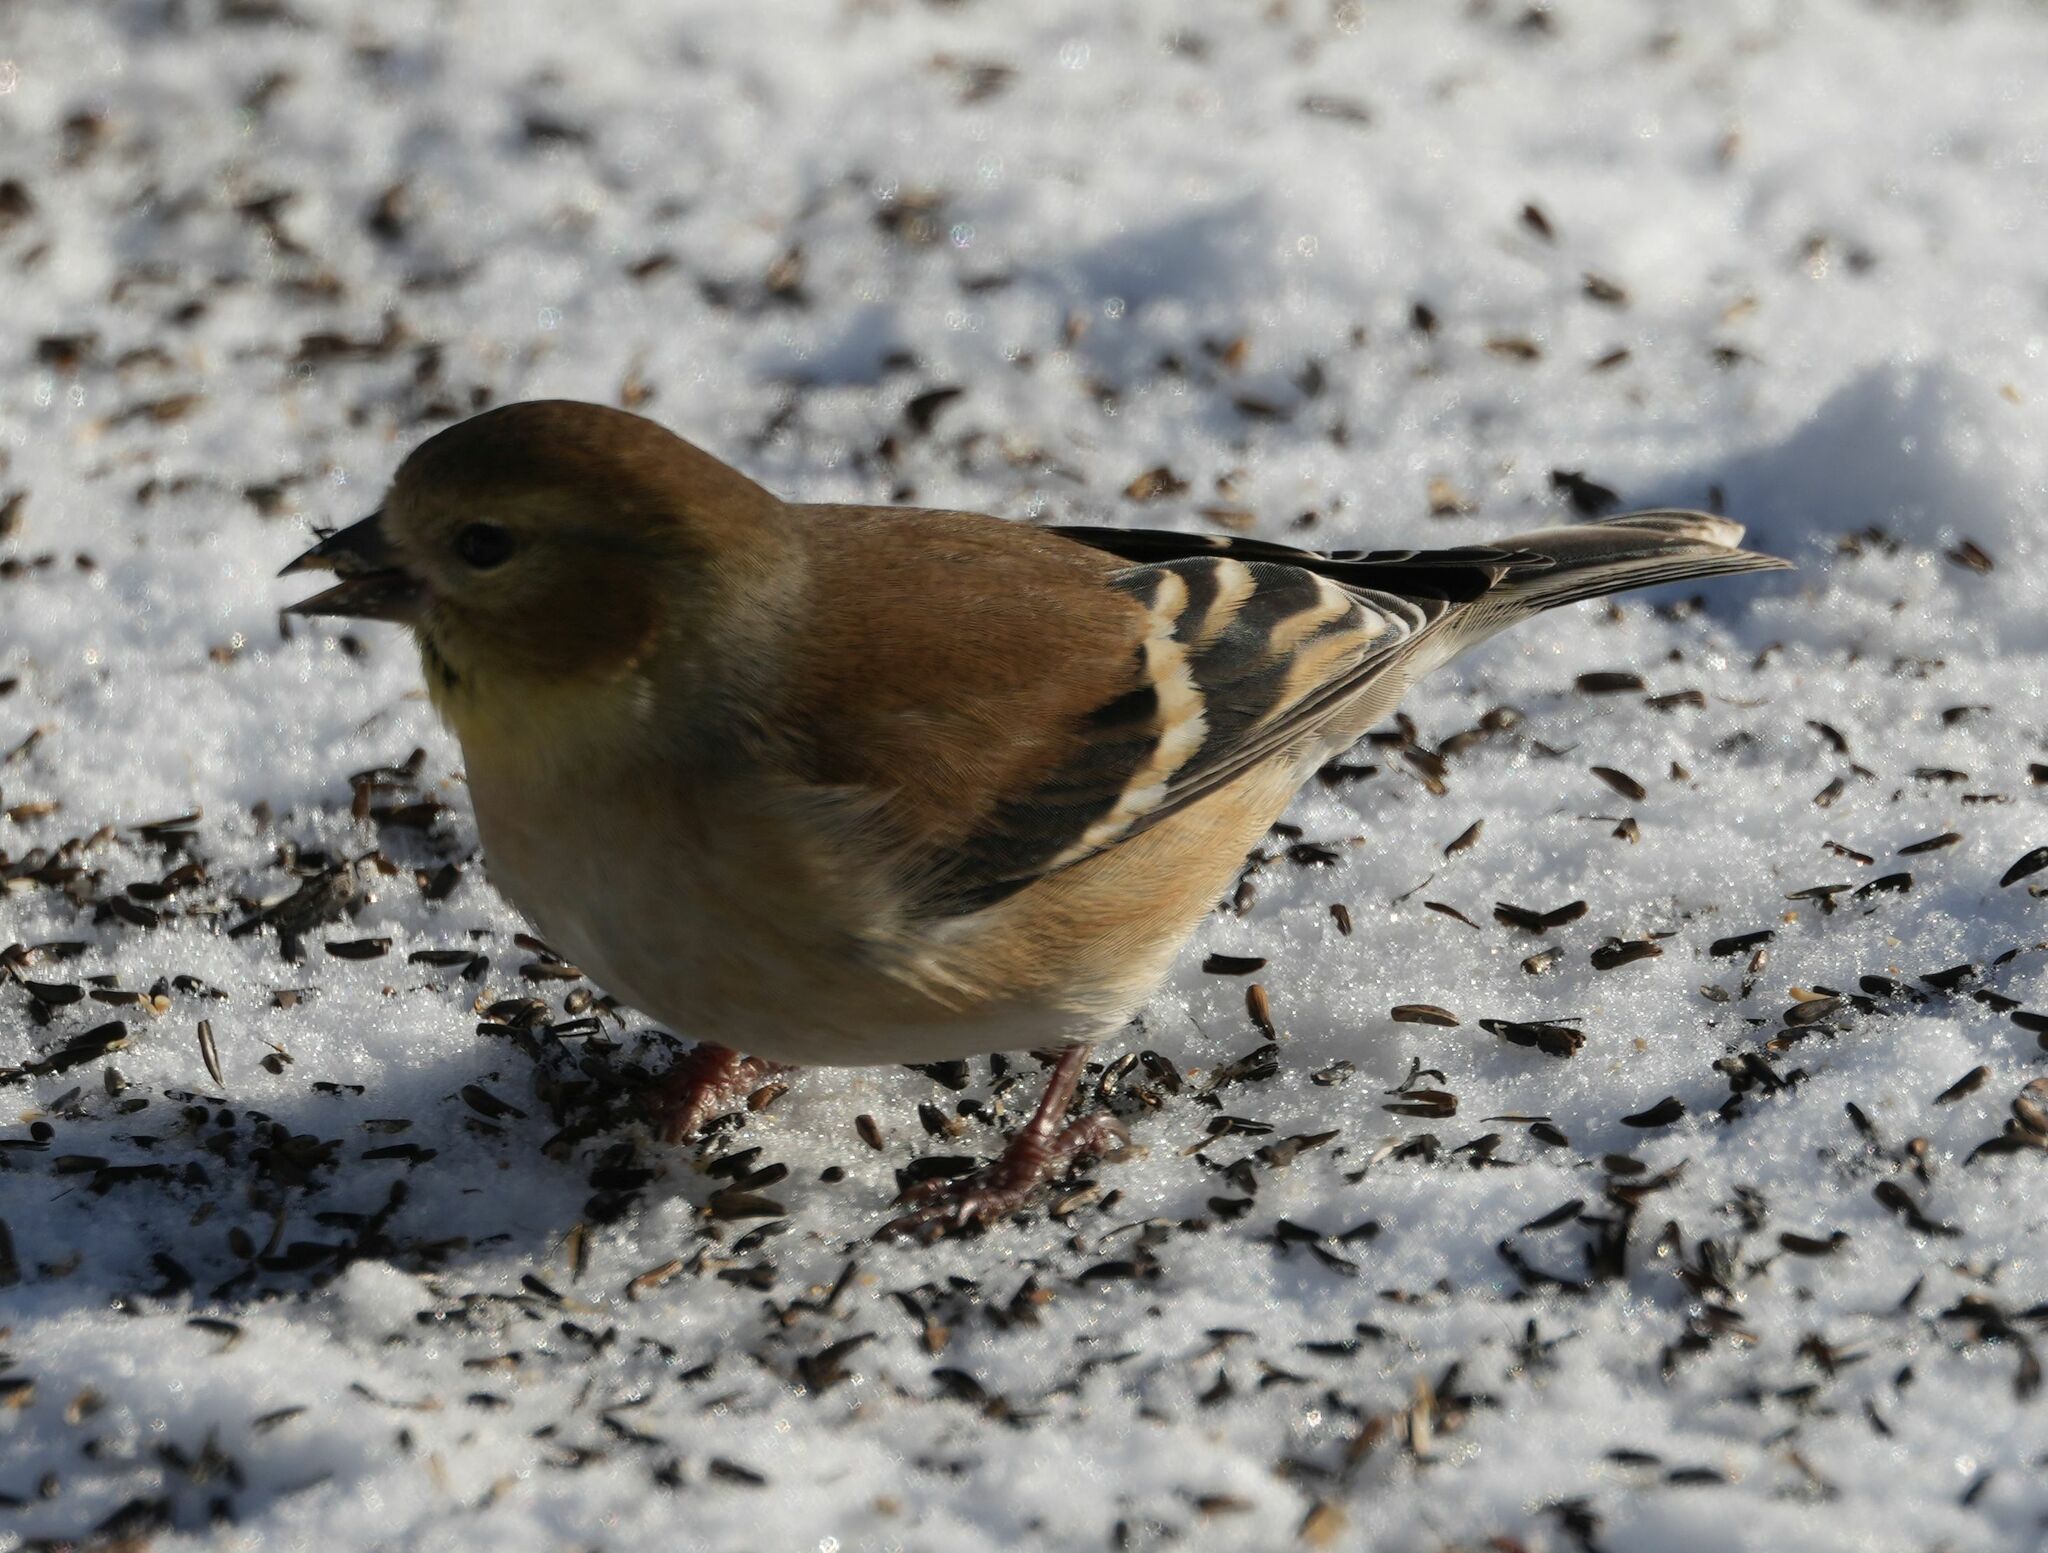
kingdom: Animalia
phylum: Chordata
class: Aves
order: Passeriformes
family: Fringillidae
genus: Spinus
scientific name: Spinus tristis
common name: American goldfinch
